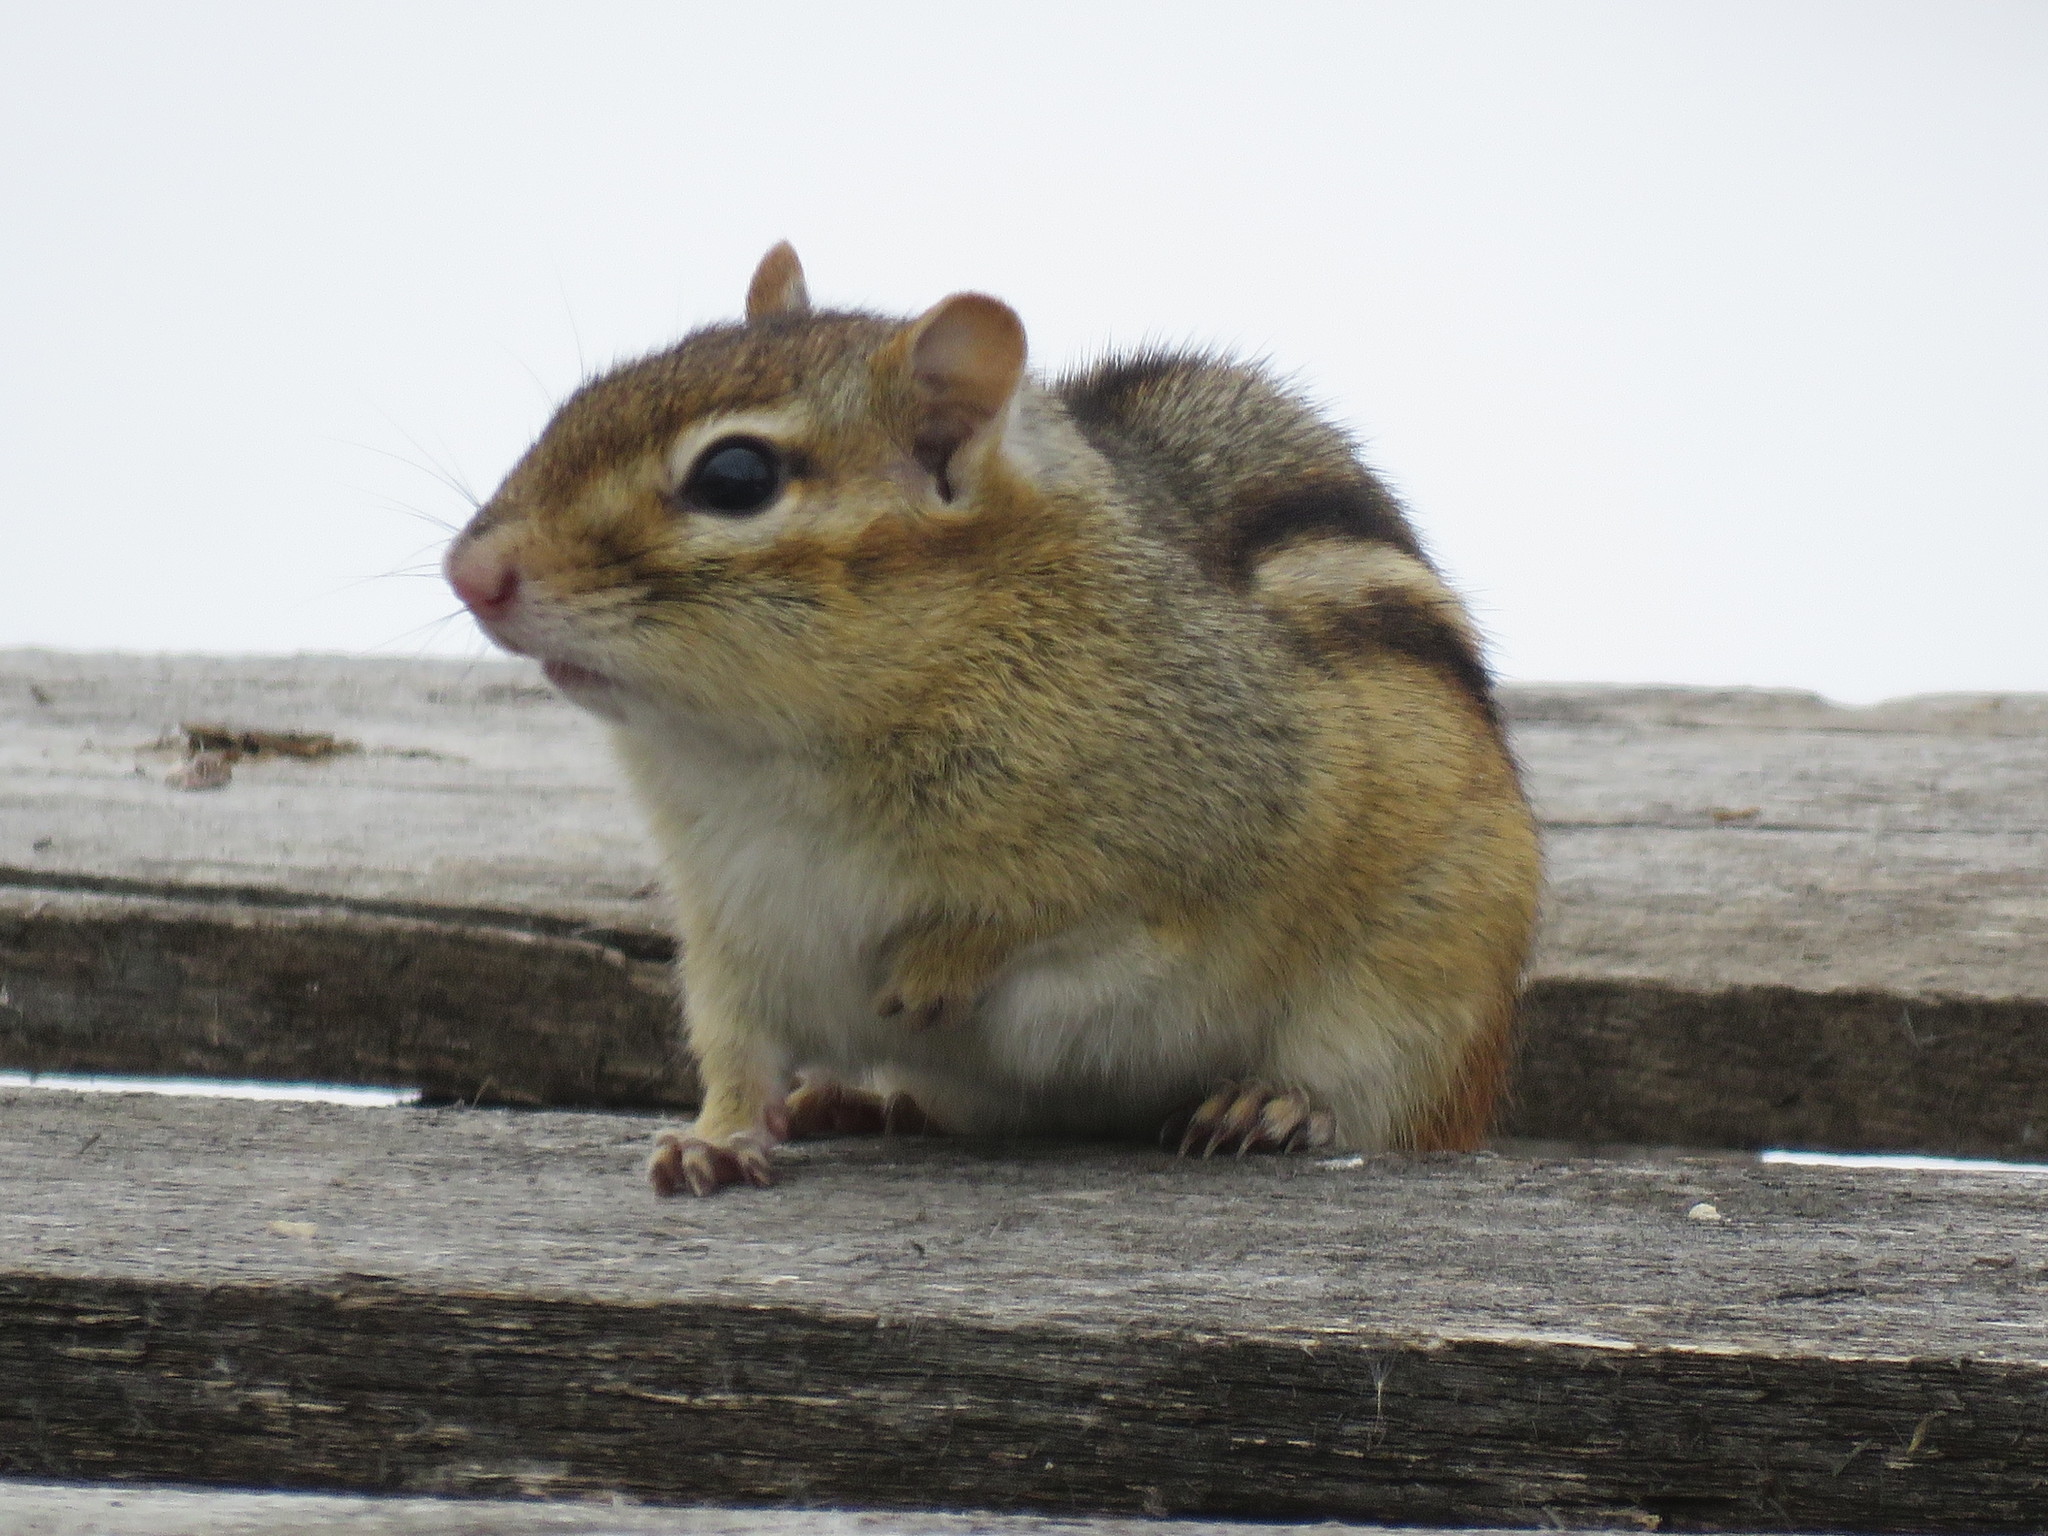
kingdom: Animalia
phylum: Chordata
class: Mammalia
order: Rodentia
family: Sciuridae
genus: Tamias
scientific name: Tamias striatus
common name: Eastern chipmunk
